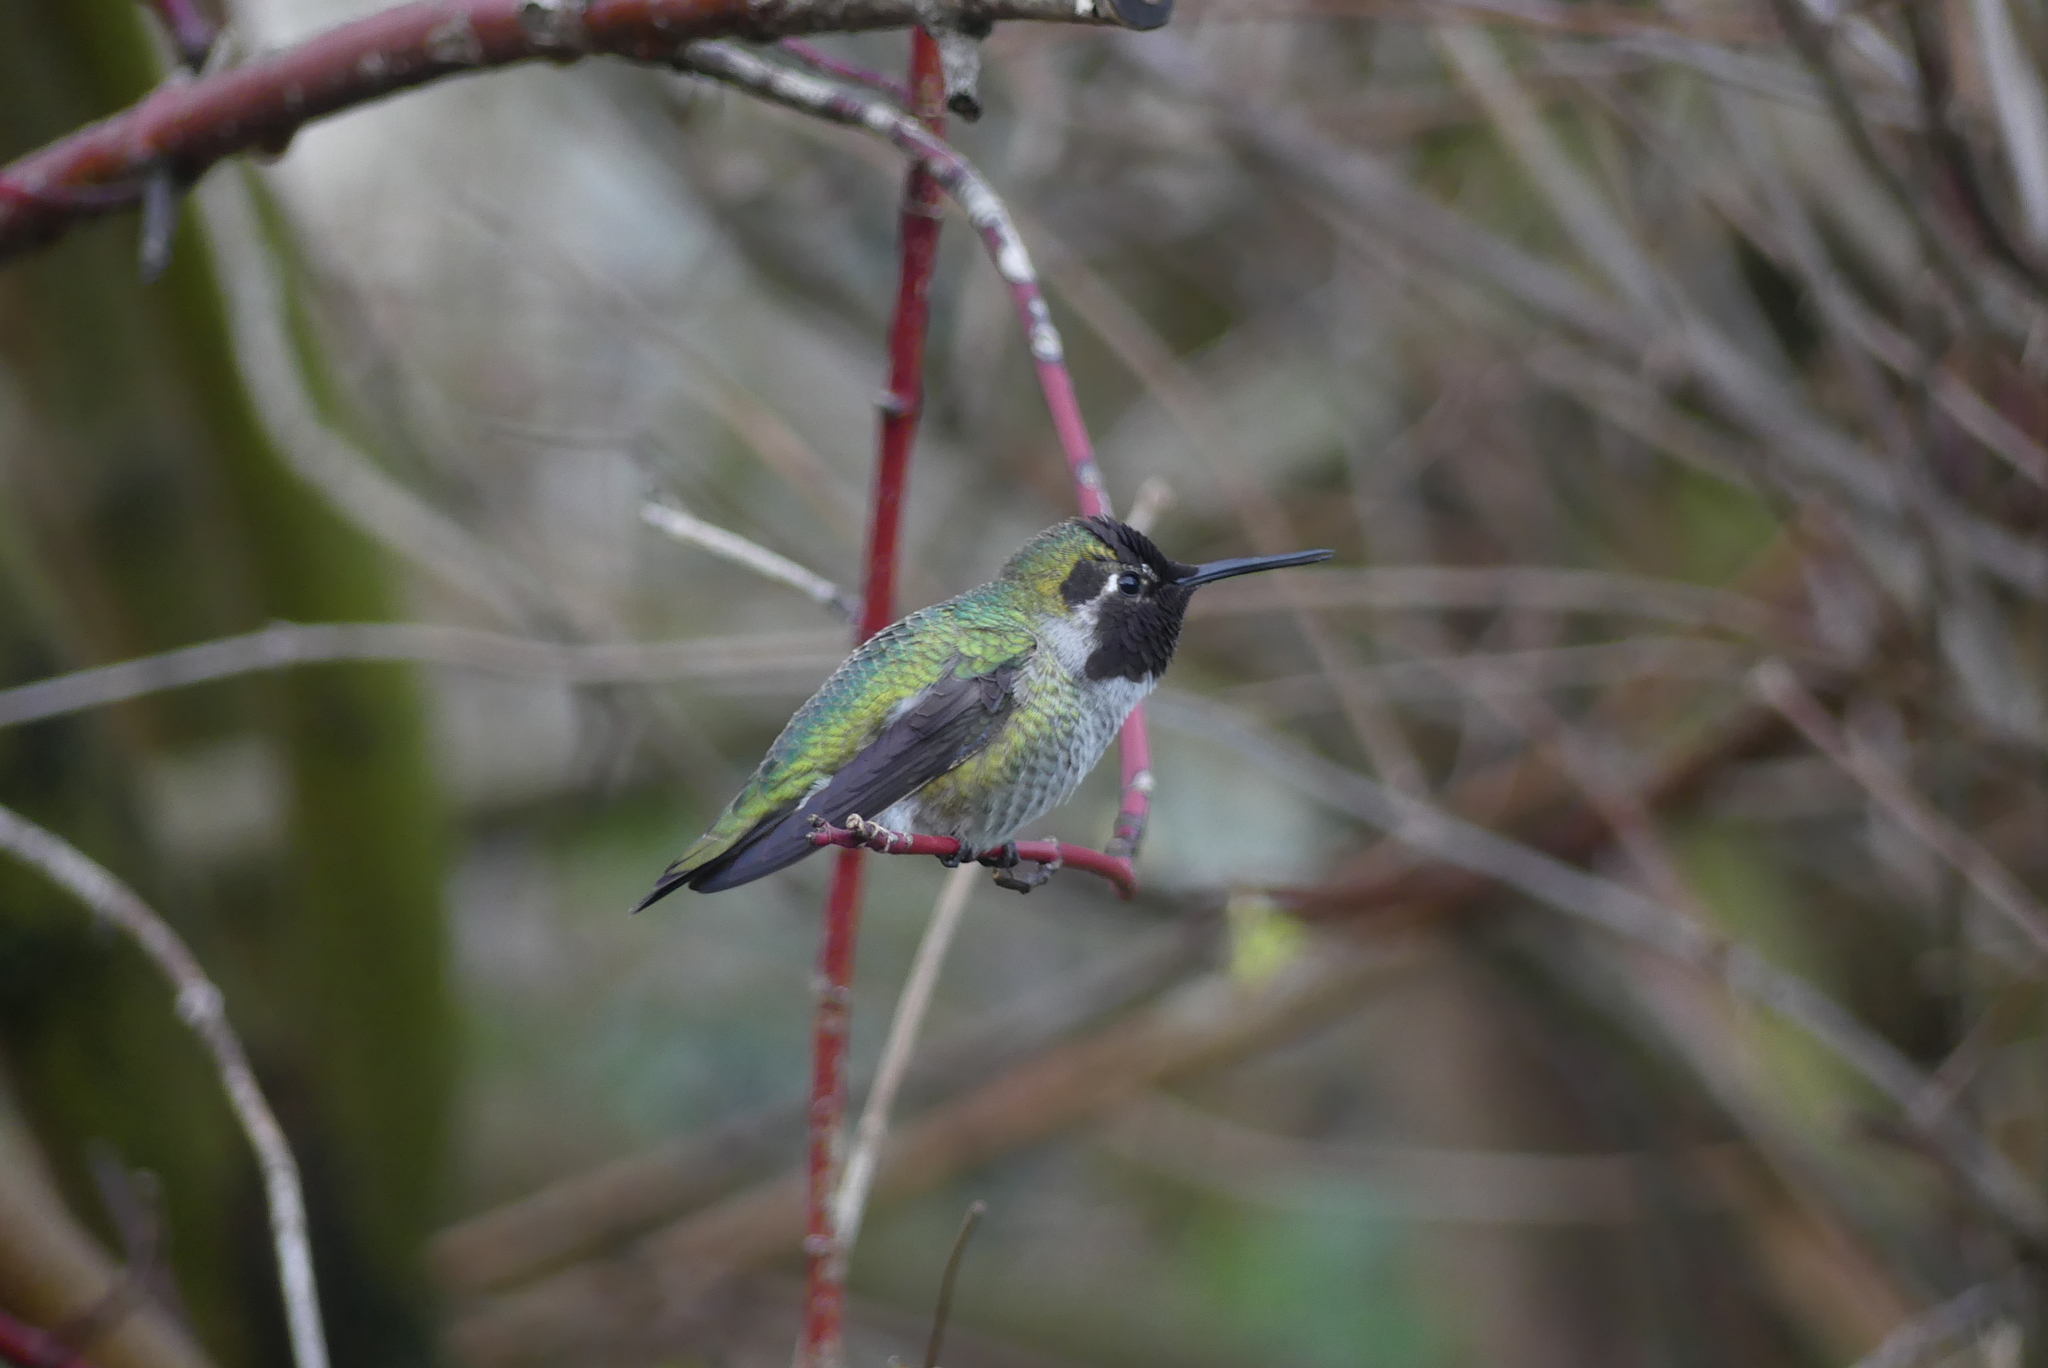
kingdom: Animalia
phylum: Chordata
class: Aves
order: Apodiformes
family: Trochilidae
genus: Calypte
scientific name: Calypte anna
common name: Anna's hummingbird
